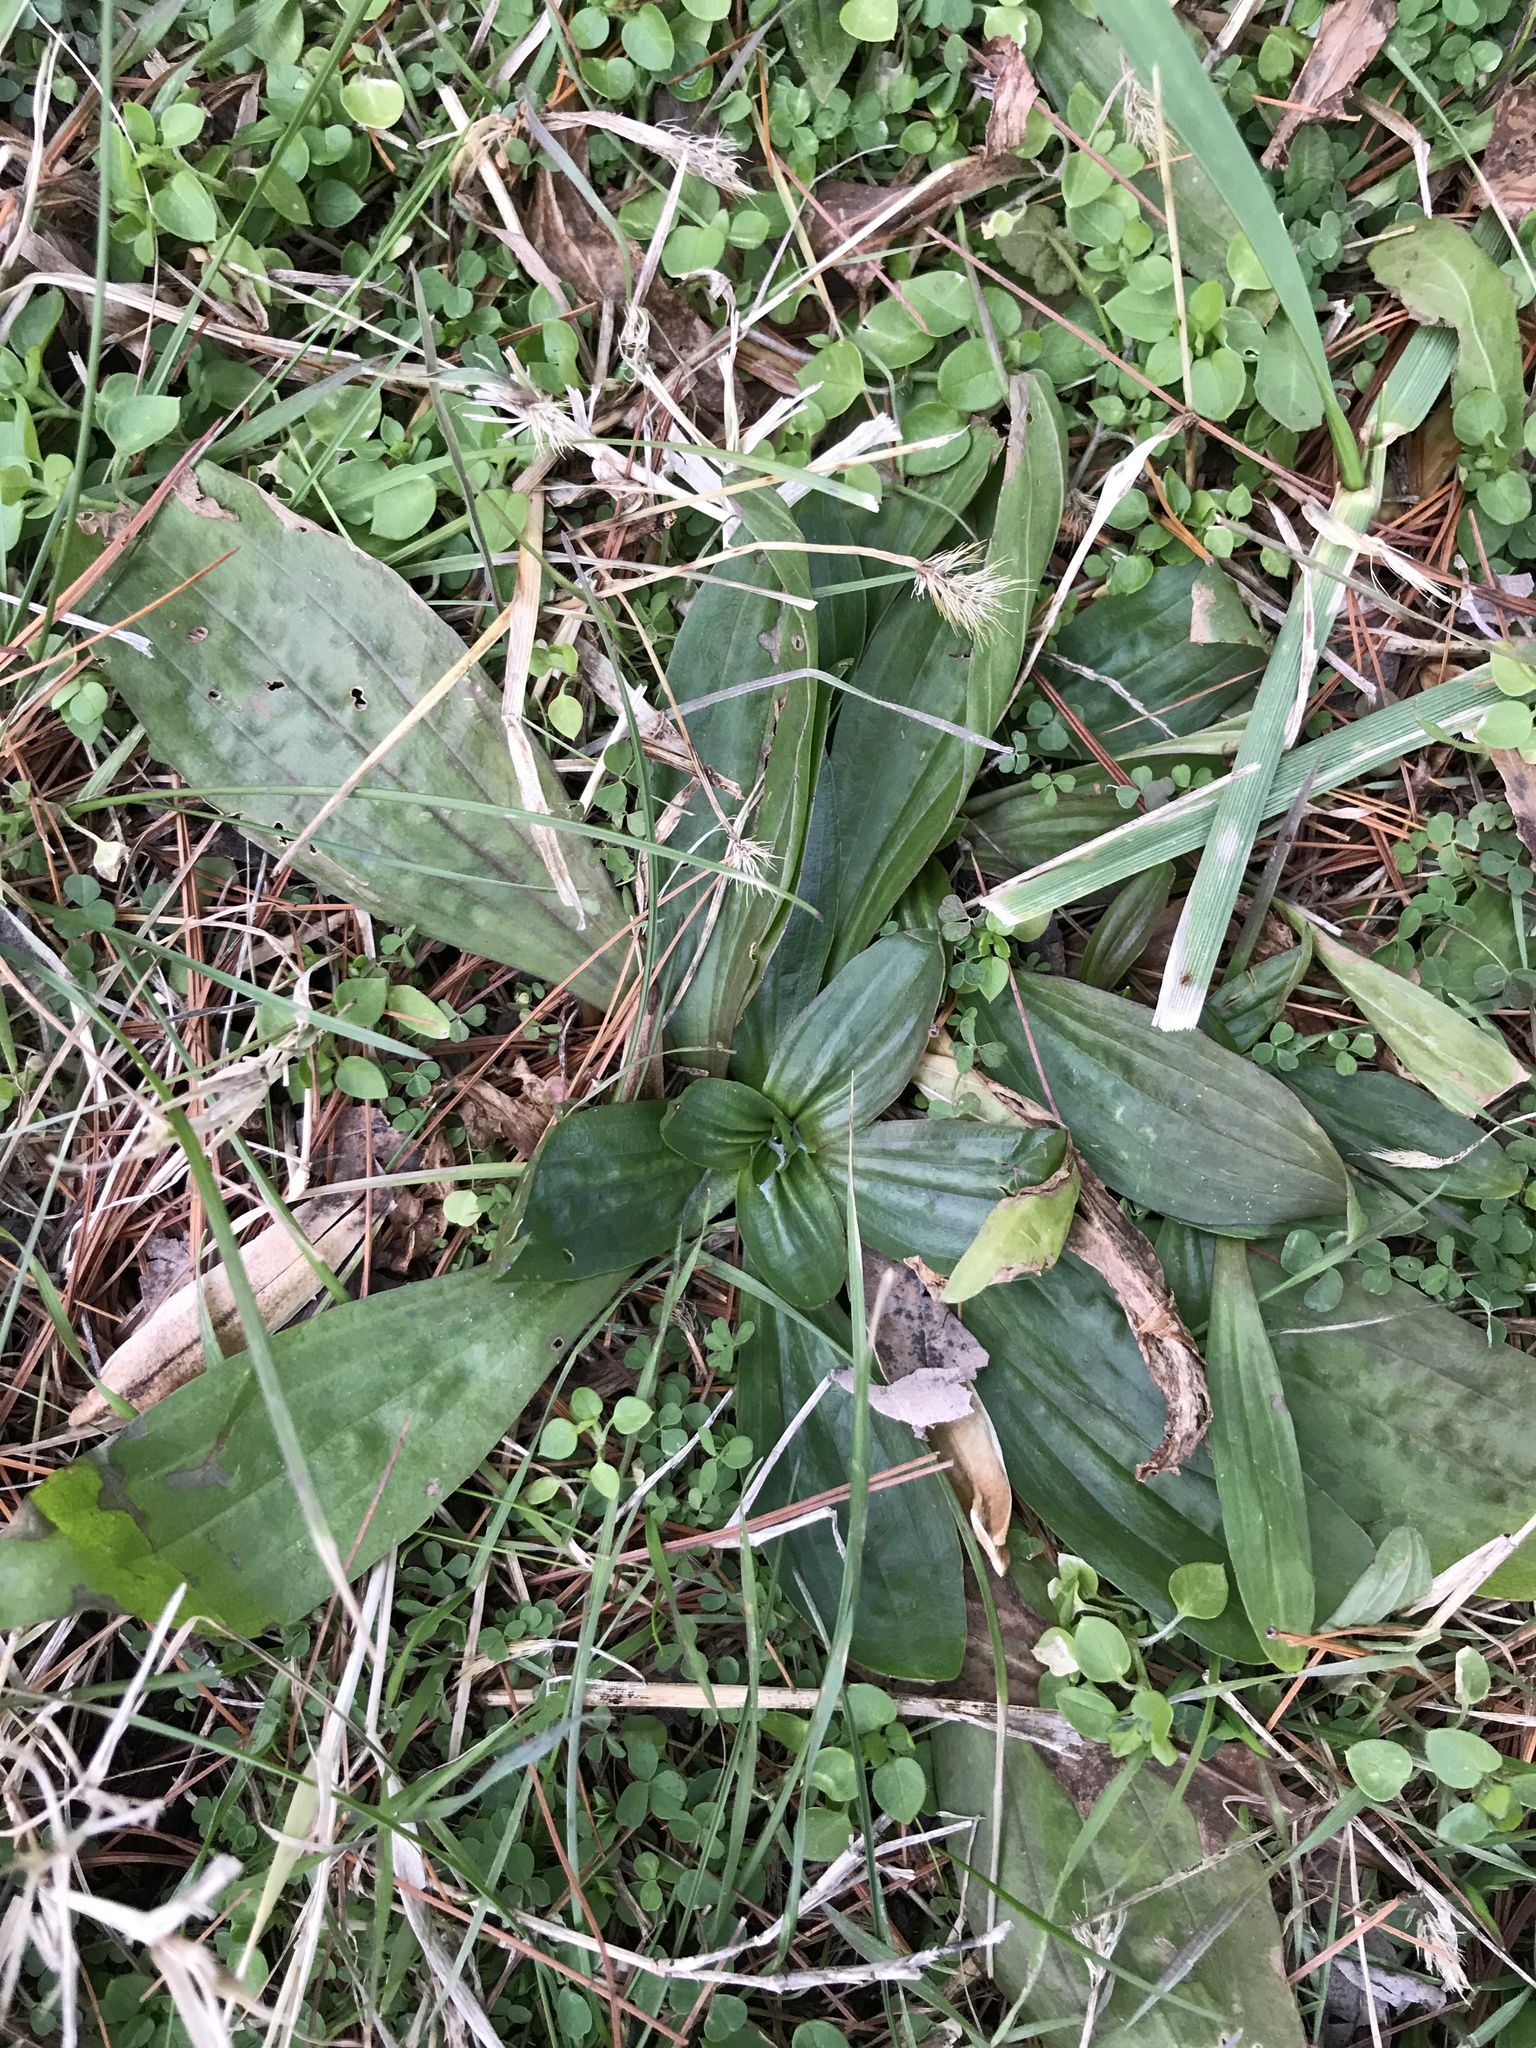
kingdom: Plantae
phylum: Tracheophyta
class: Magnoliopsida
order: Lamiales
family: Plantaginaceae
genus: Plantago
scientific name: Plantago lanceolata
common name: Ribwort plantain
